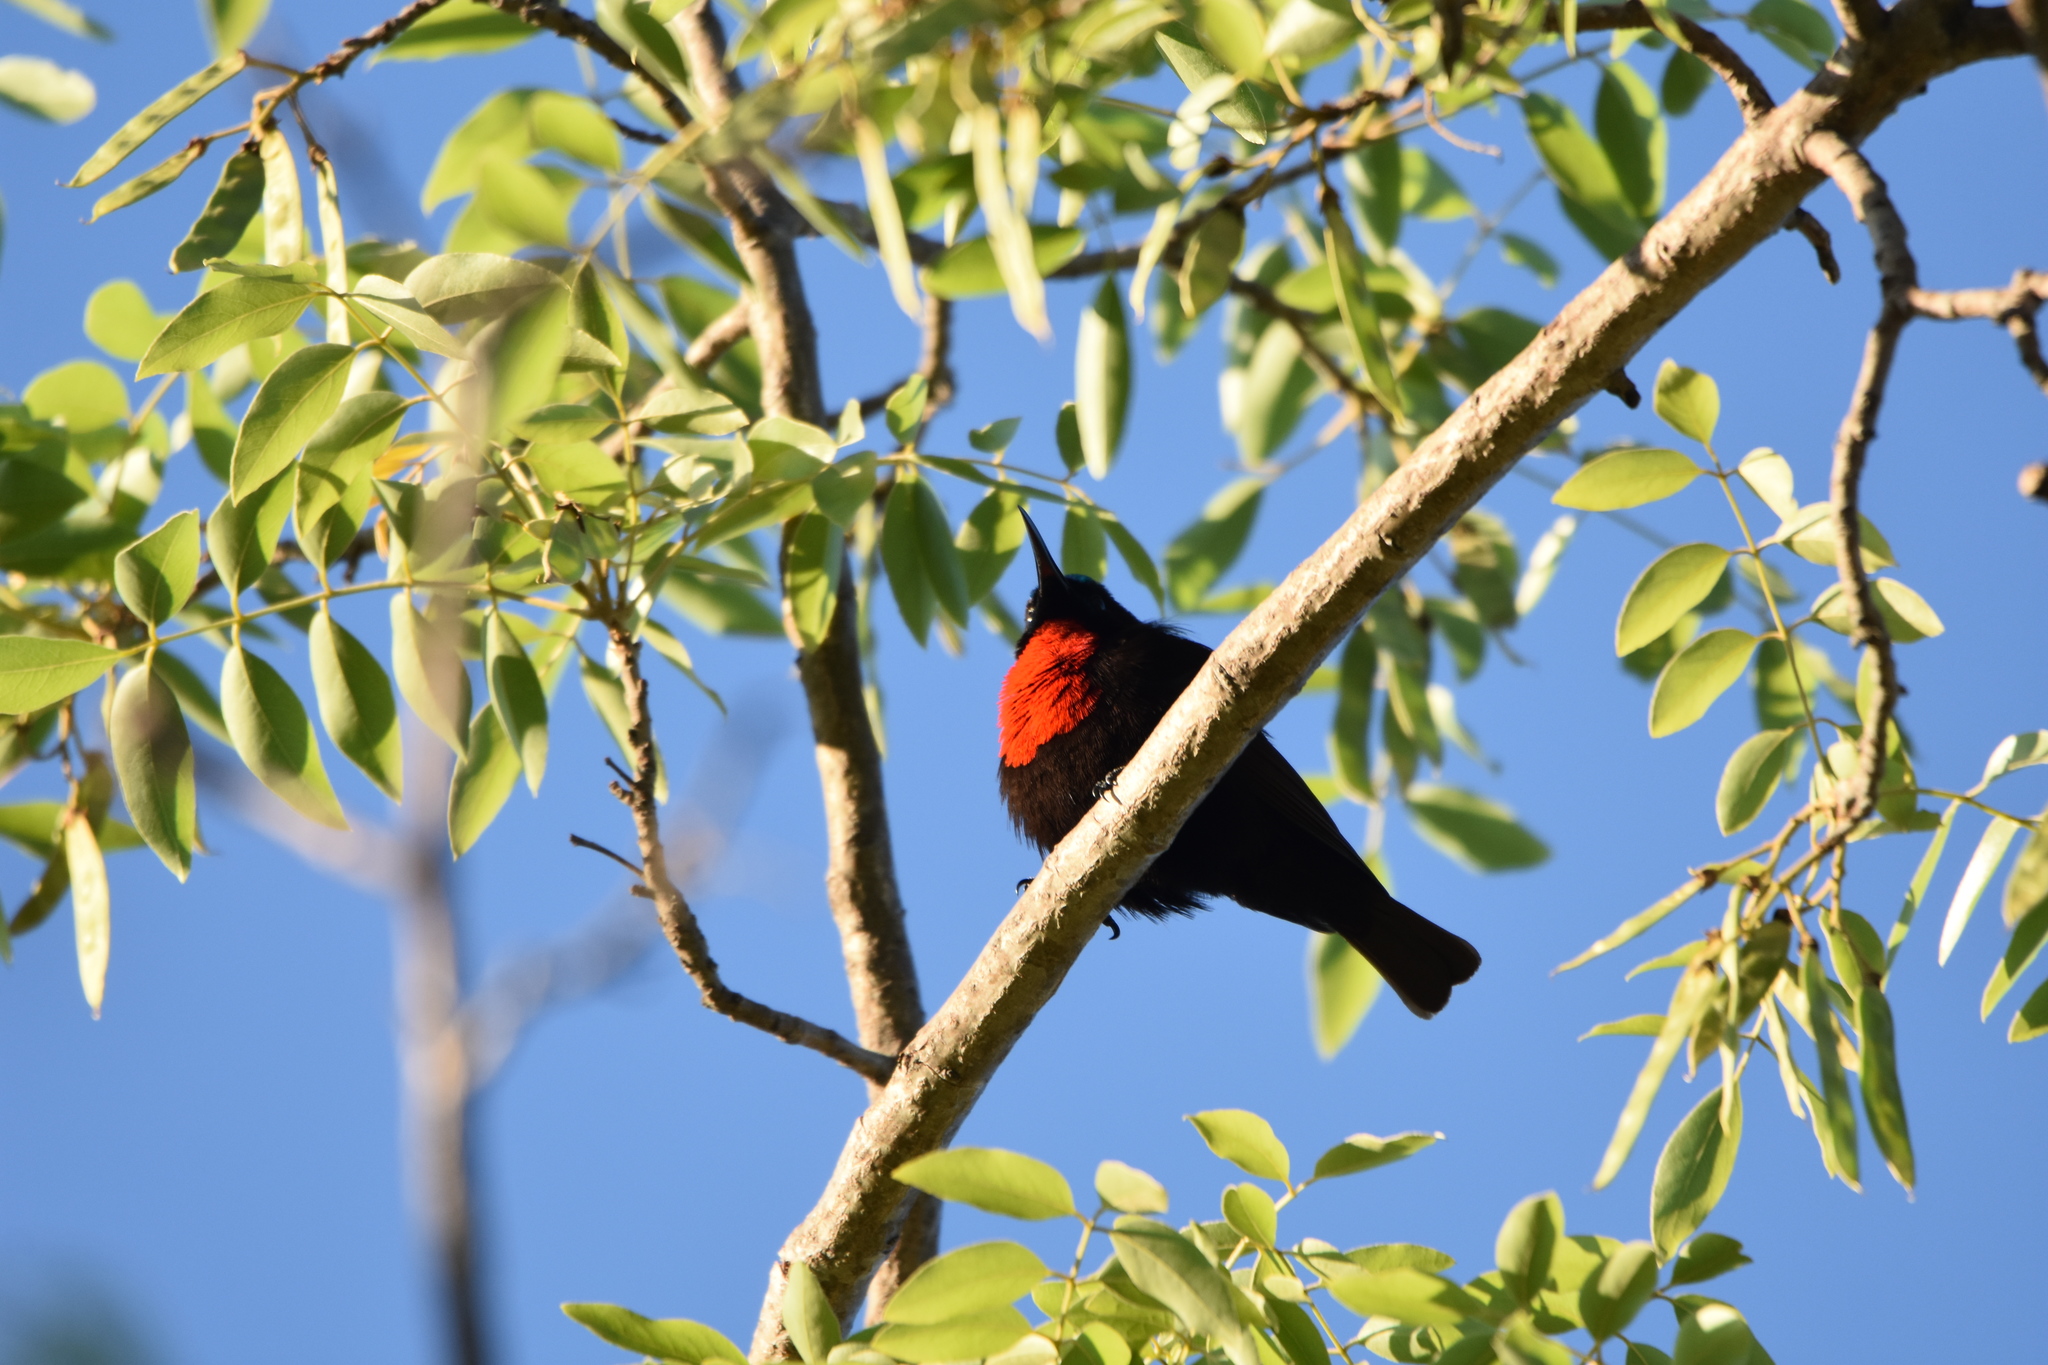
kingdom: Animalia
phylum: Chordata
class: Aves
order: Passeriformes
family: Nectariniidae
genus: Chalcomitra
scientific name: Chalcomitra senegalensis
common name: Scarlet-chested sunbird
